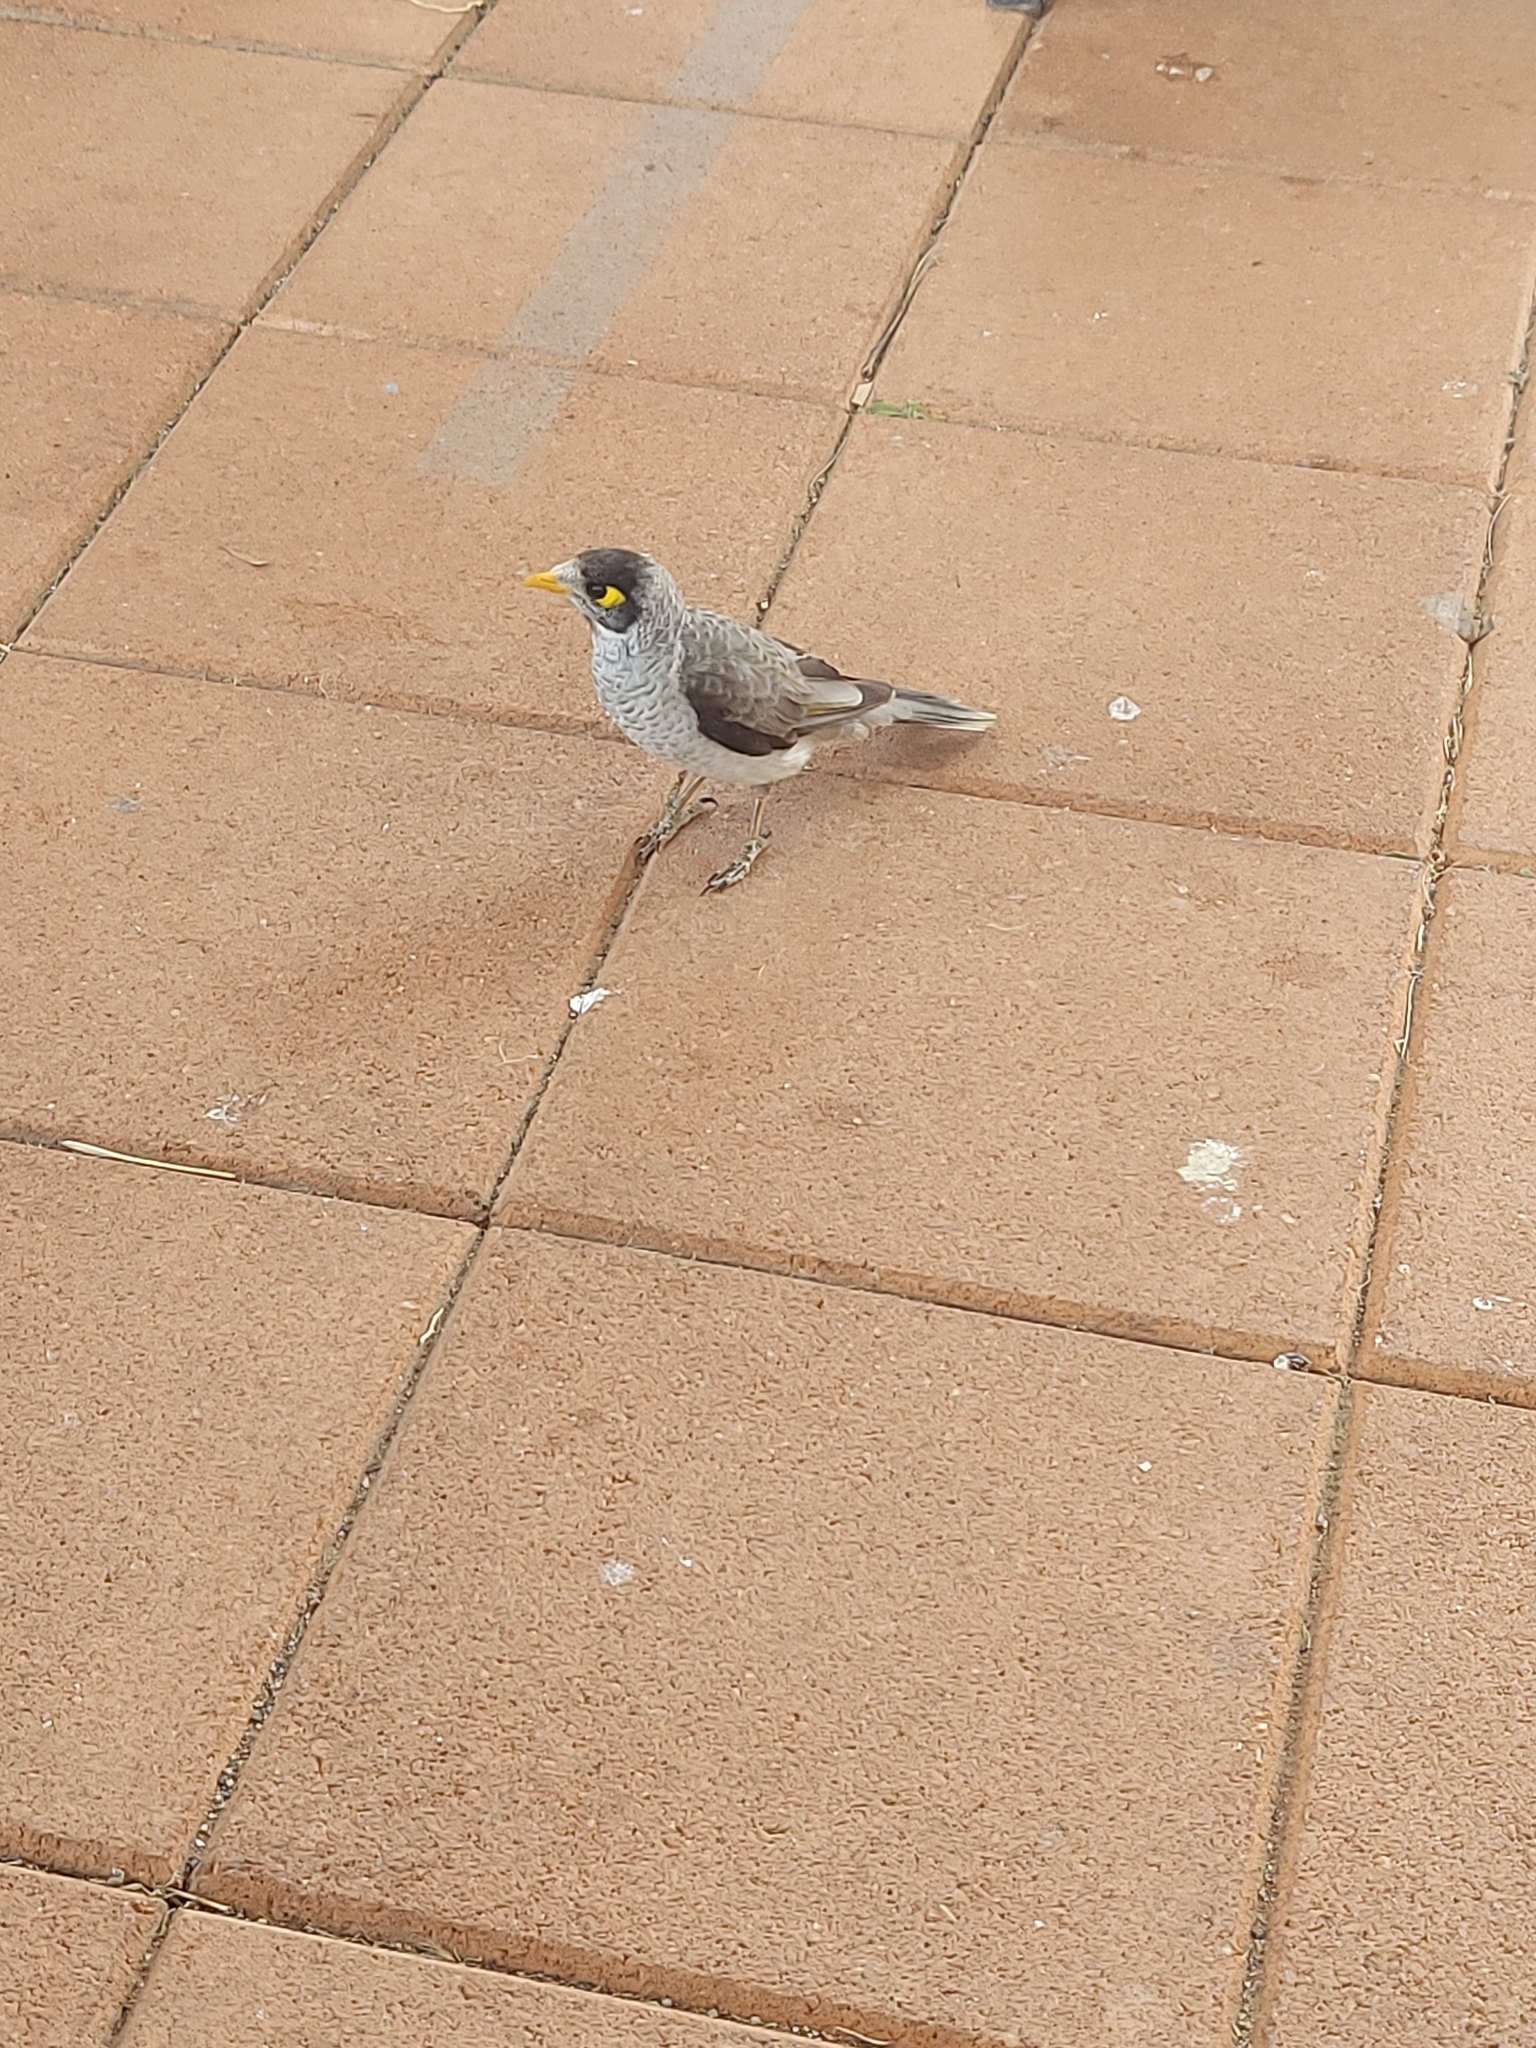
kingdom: Animalia
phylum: Chordata
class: Aves
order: Passeriformes
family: Meliphagidae
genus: Manorina
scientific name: Manorina melanocephala
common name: Noisy miner
